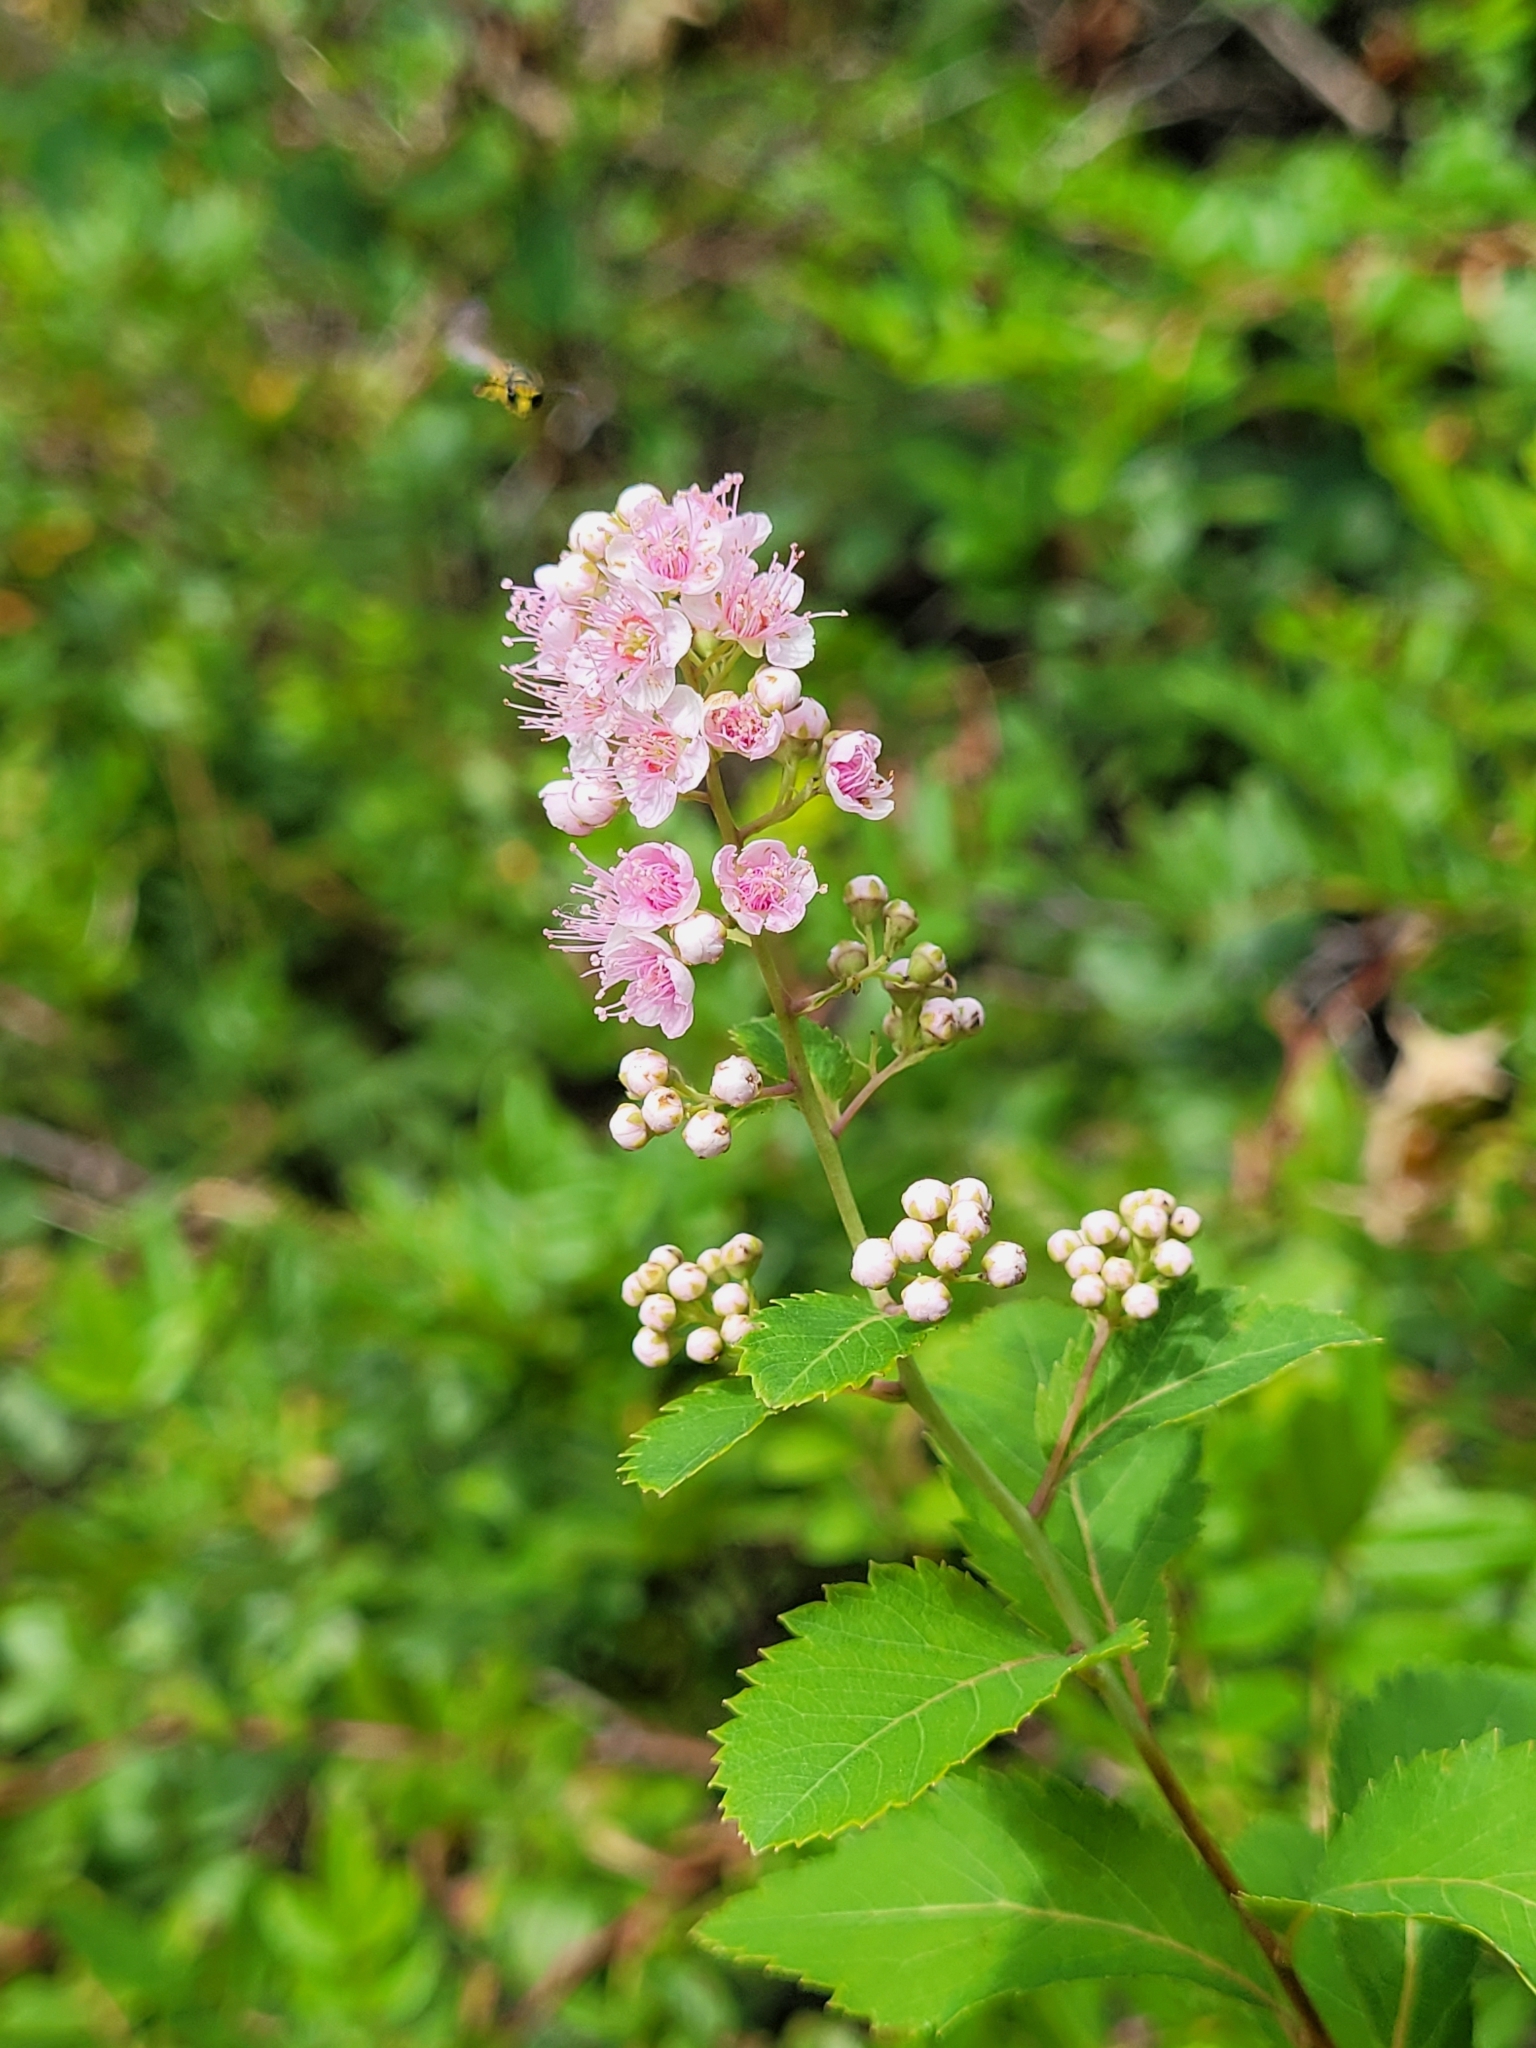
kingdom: Plantae
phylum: Tracheophyta
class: Magnoliopsida
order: Rosales
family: Rosaceae
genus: Spiraea
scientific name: Spiraea alba
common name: Pale bridewort
